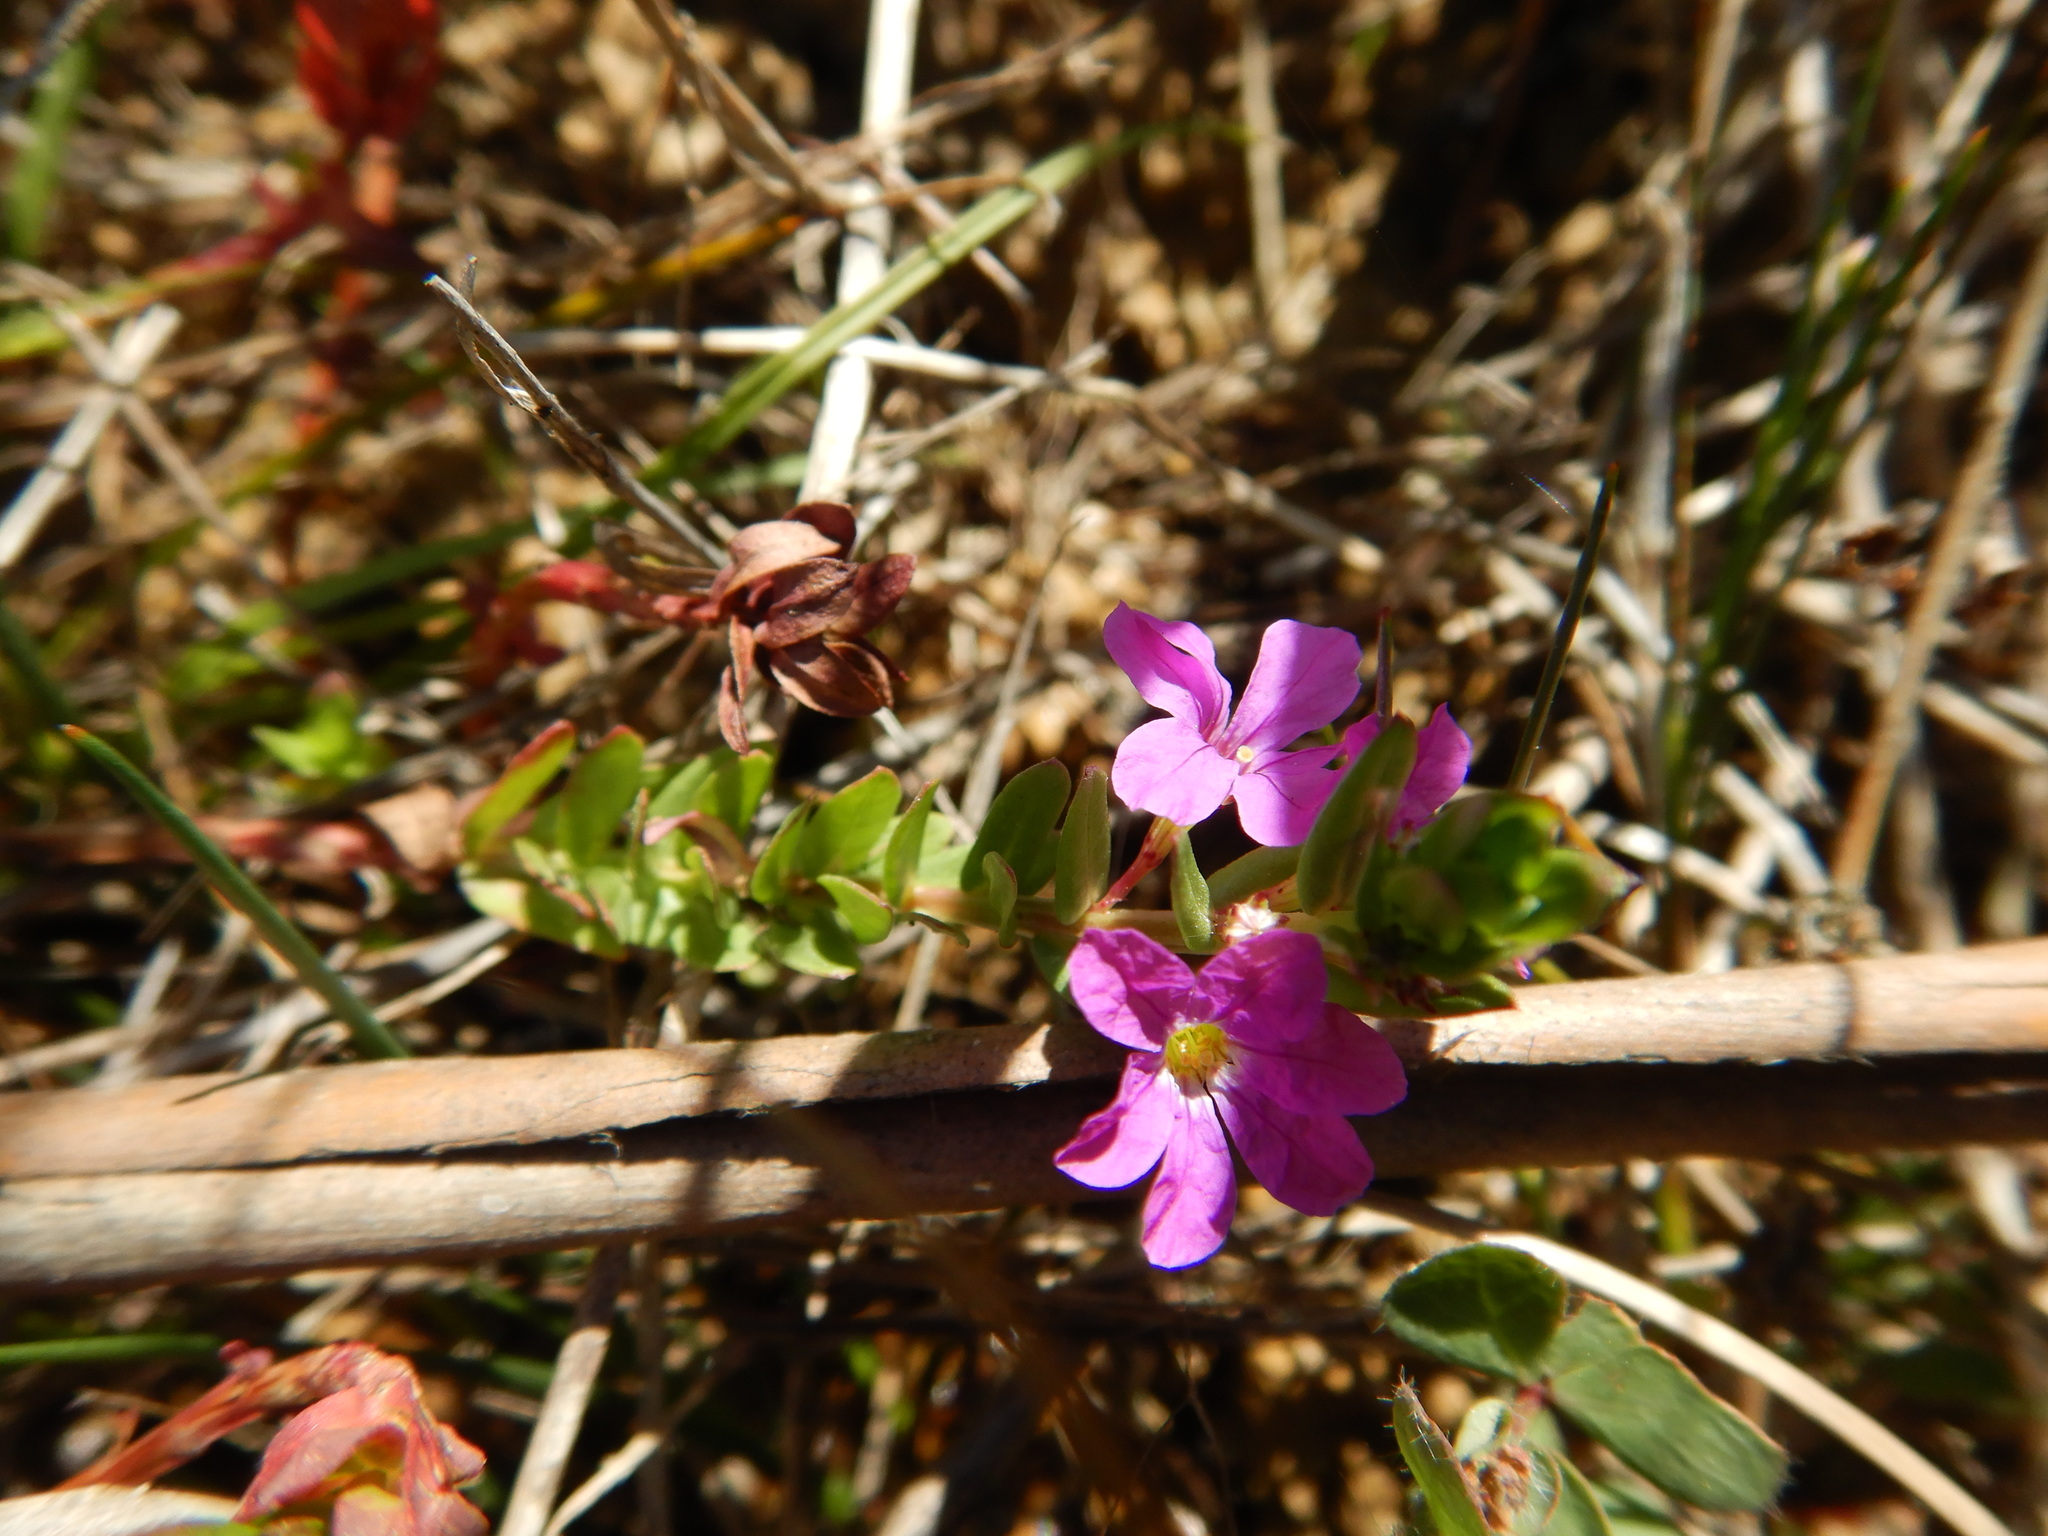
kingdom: Plantae
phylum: Tracheophyta
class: Magnoliopsida
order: Myrtales
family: Lythraceae
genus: Lythrum
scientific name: Lythrum junceum
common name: False grass-poly
